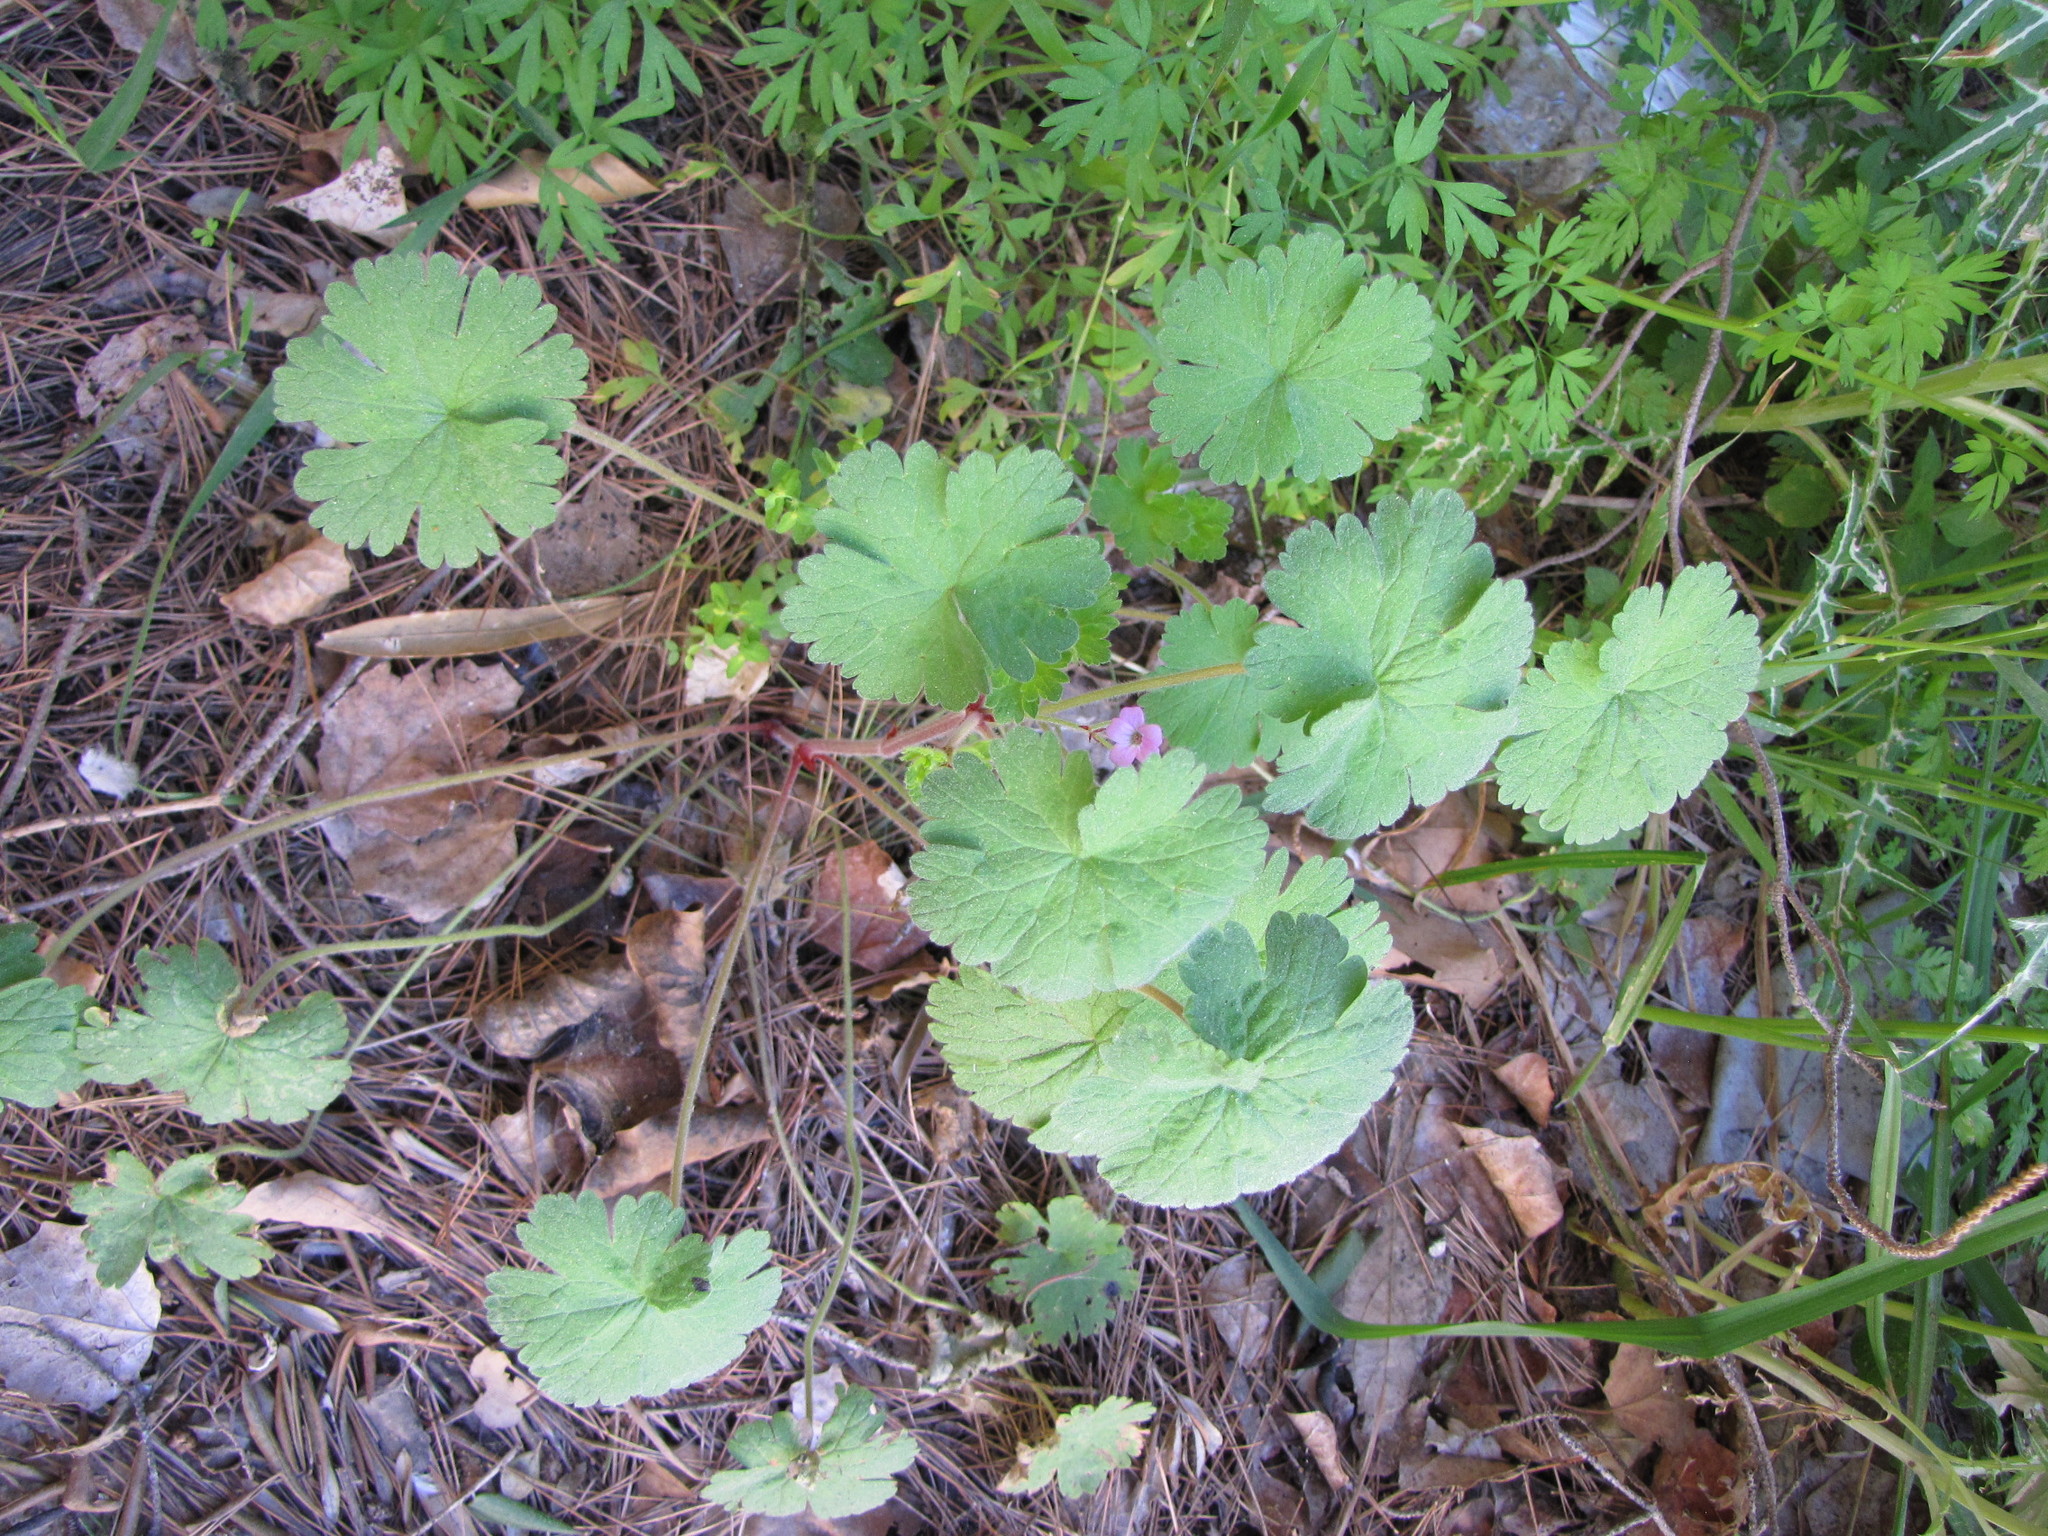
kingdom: Plantae
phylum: Tracheophyta
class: Magnoliopsida
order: Geraniales
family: Geraniaceae
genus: Geranium
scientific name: Geranium rotundifolium
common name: Round-leaved crane's-bill
